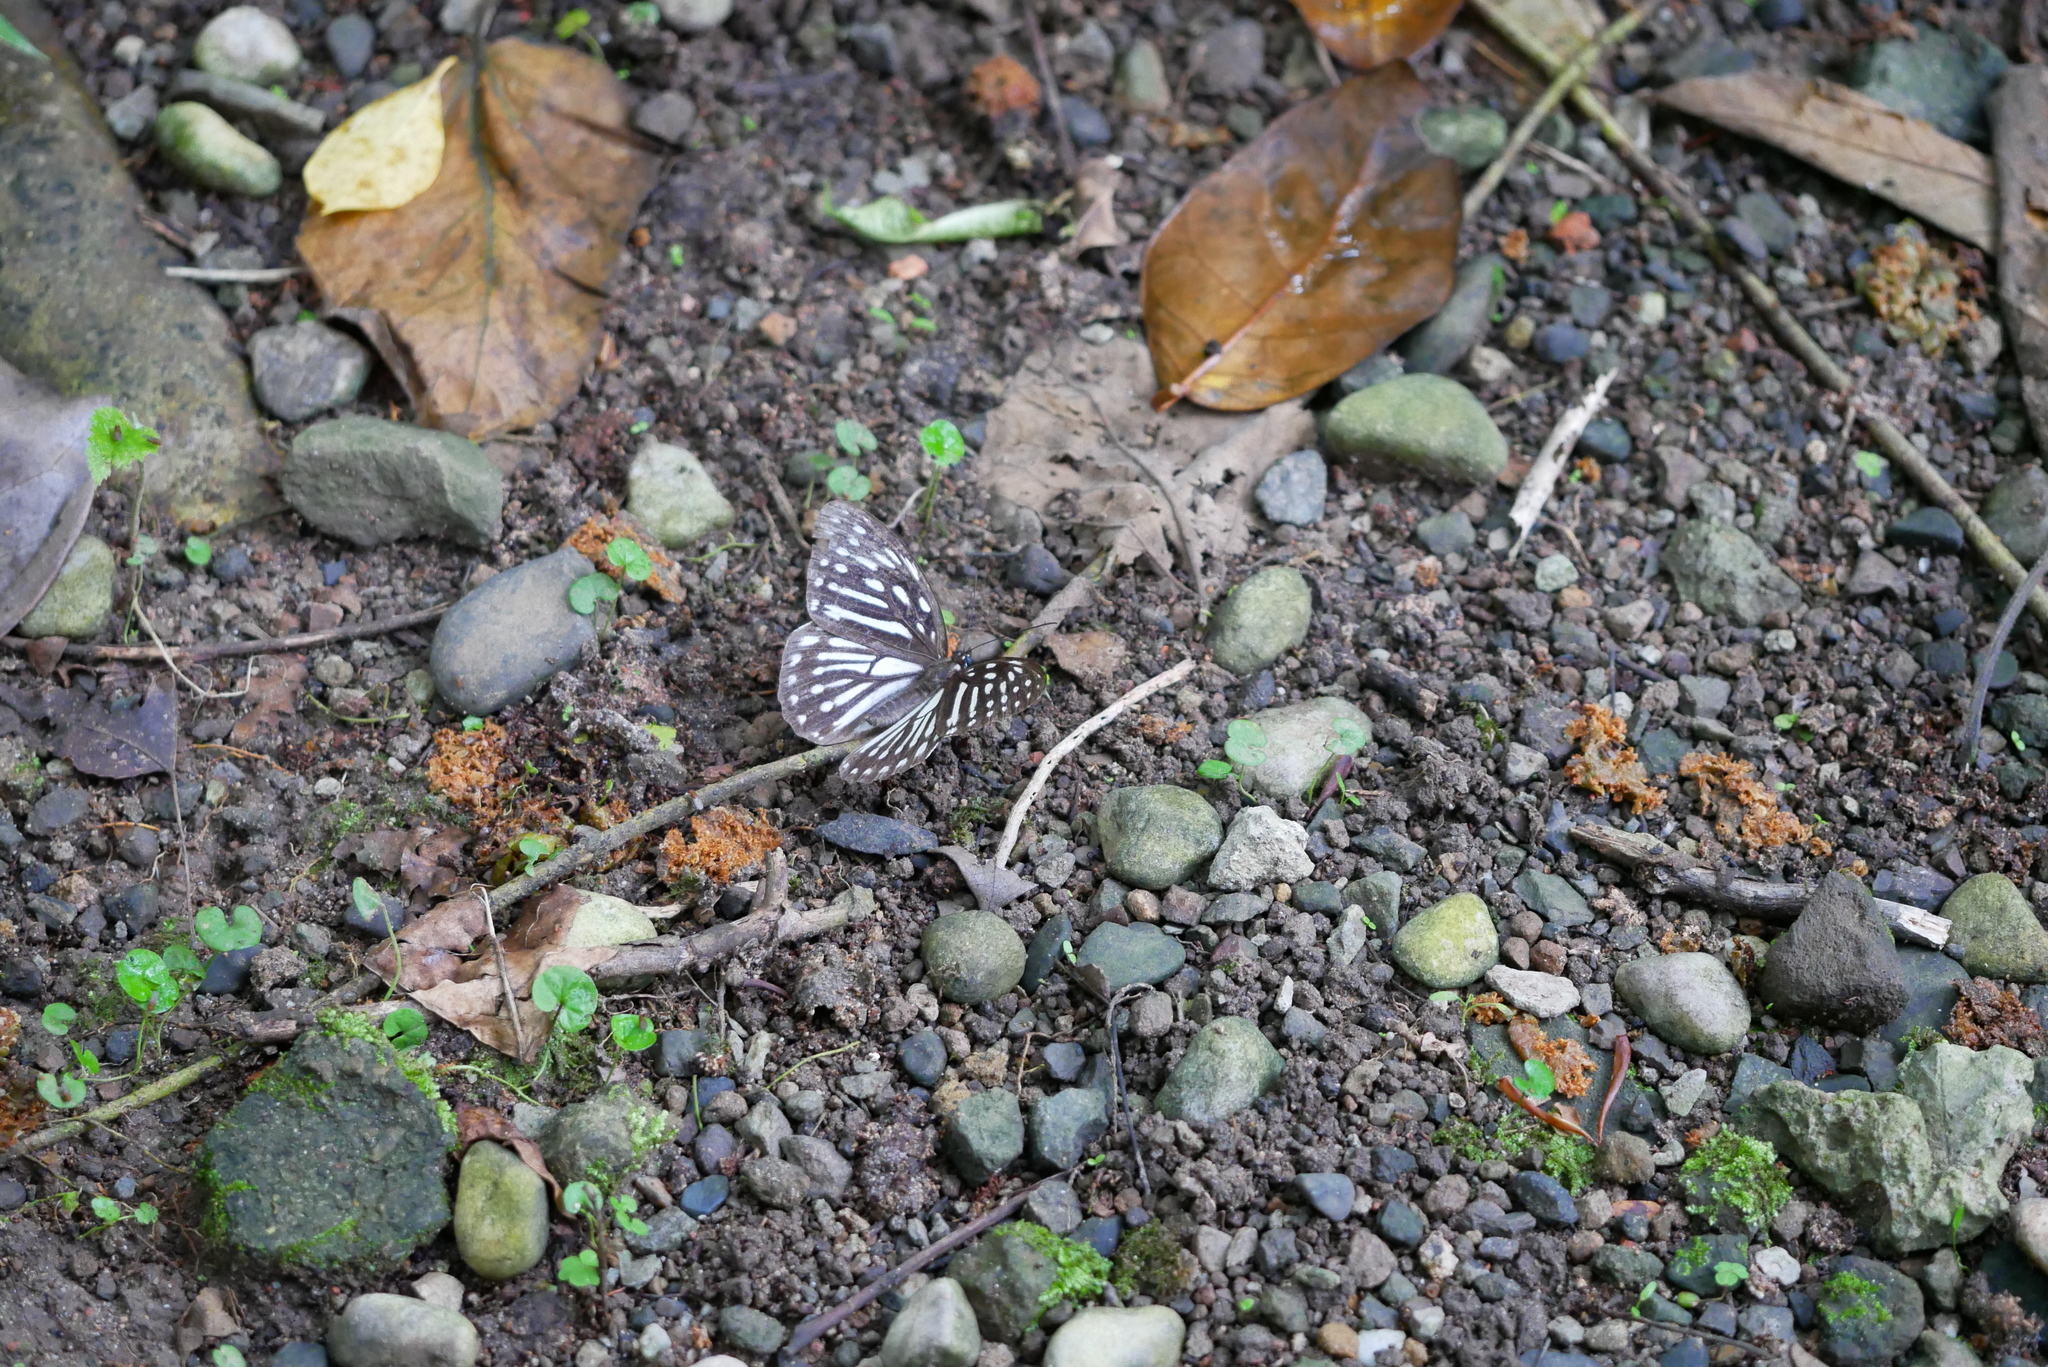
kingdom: Animalia
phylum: Arthropoda
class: Insecta
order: Lepidoptera
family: Nymphalidae
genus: Penthema
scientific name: Penthema formosanum
